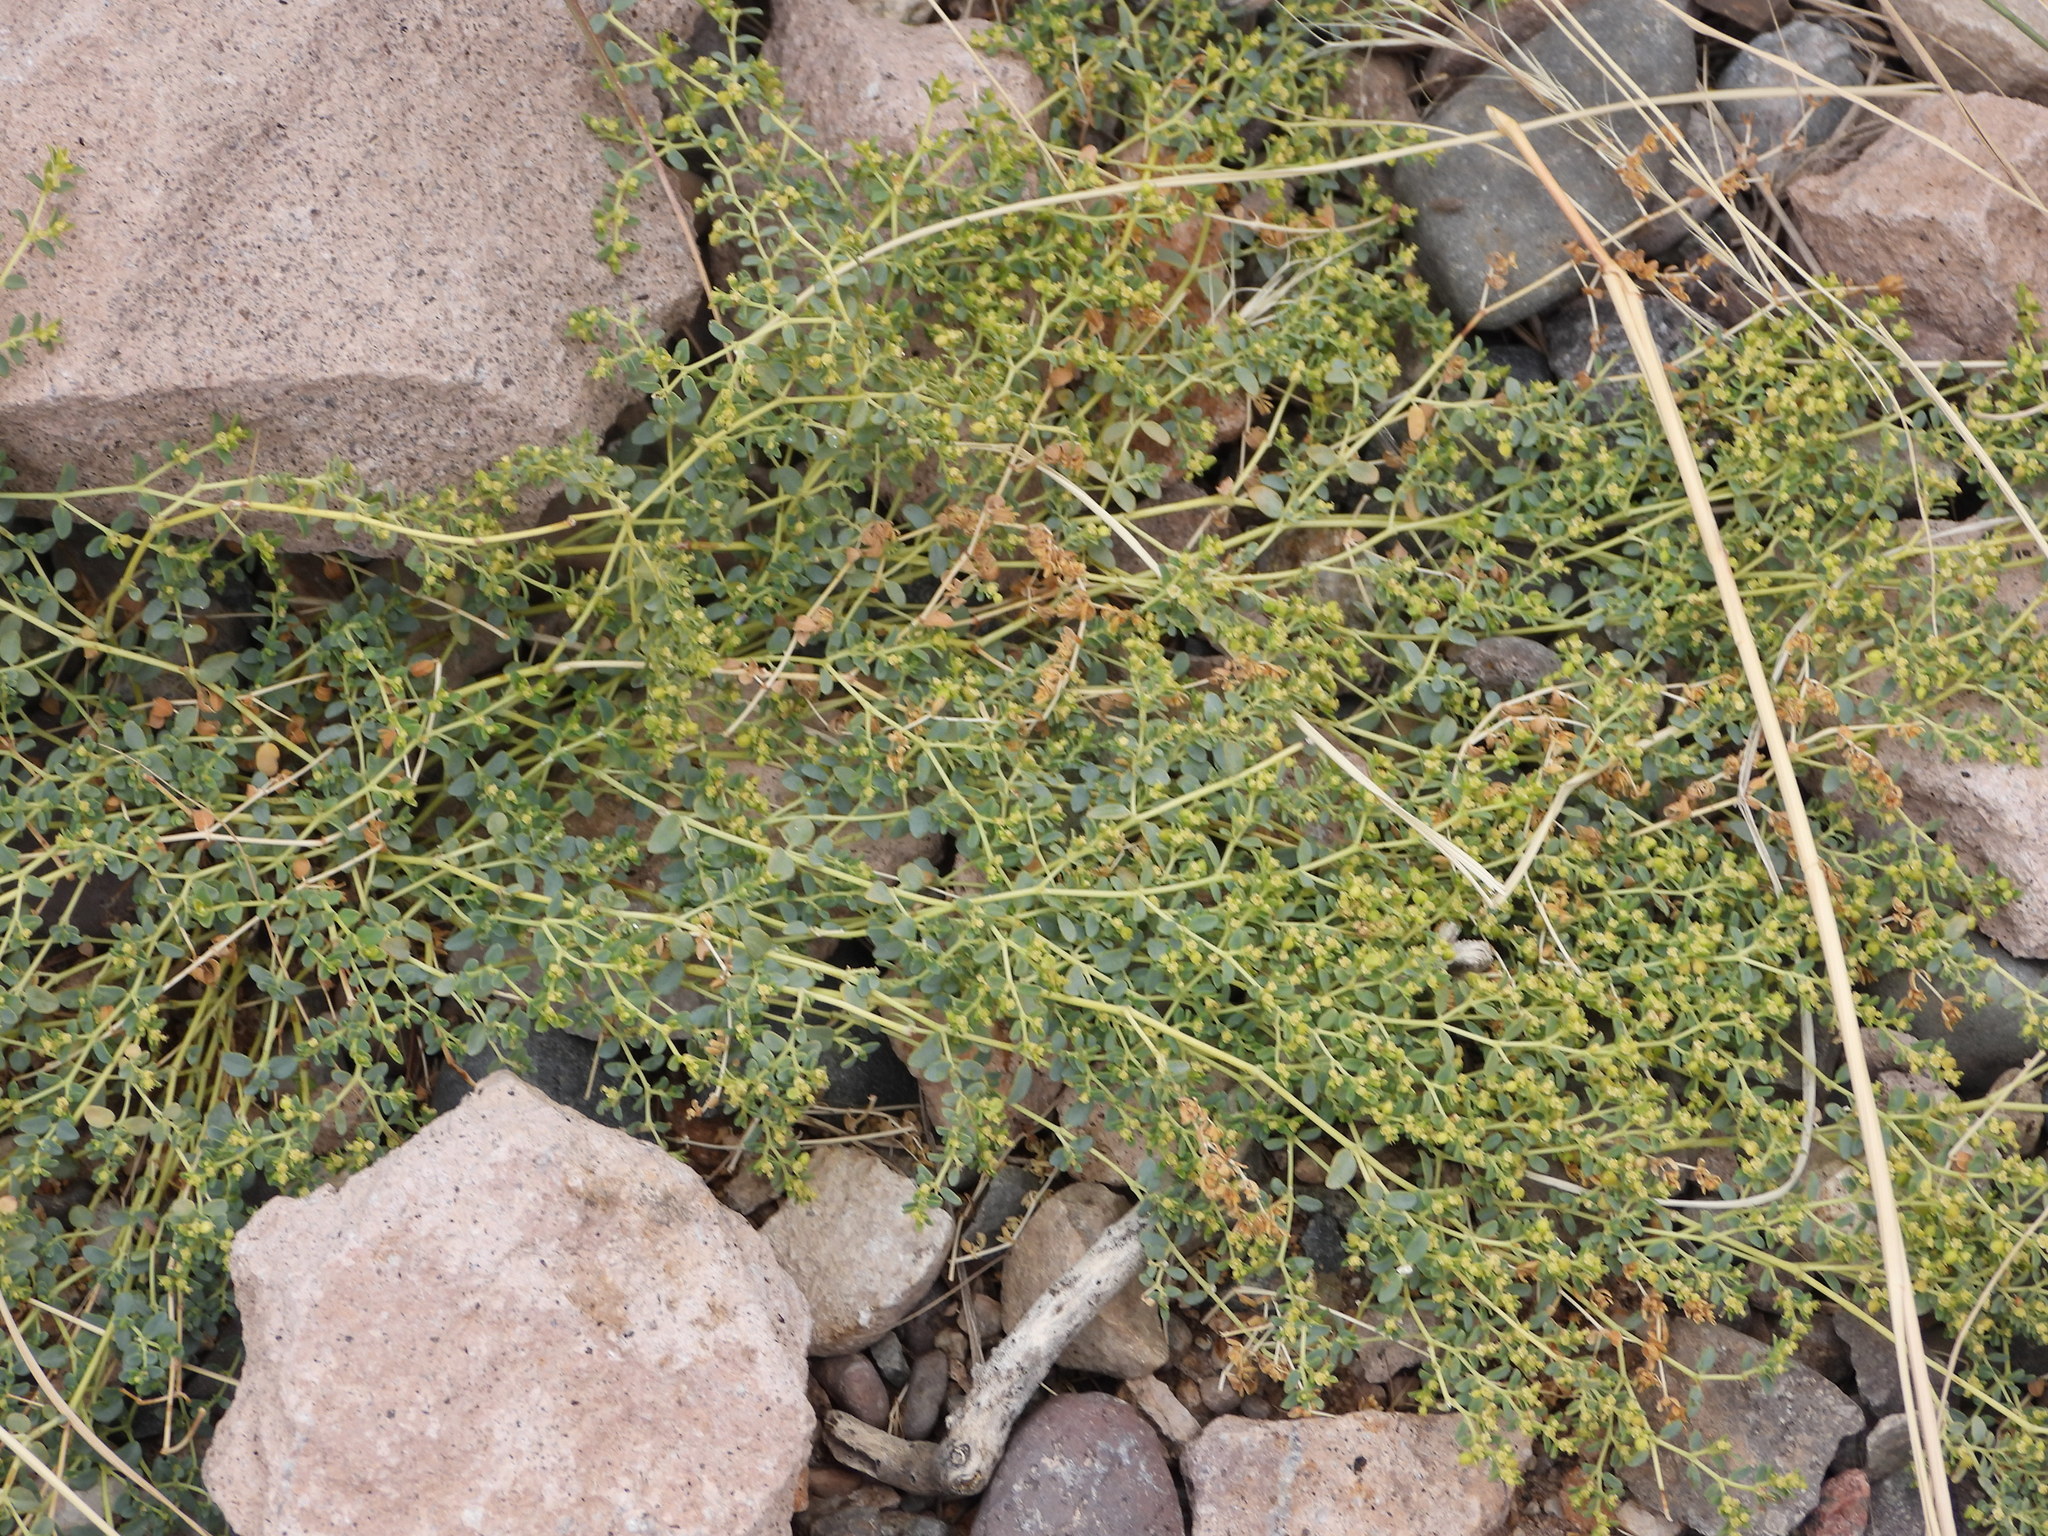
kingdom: Plantae
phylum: Tracheophyta
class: Magnoliopsida
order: Malpighiales
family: Euphorbiaceae
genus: Euphorbia
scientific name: Euphorbia polycarpa
